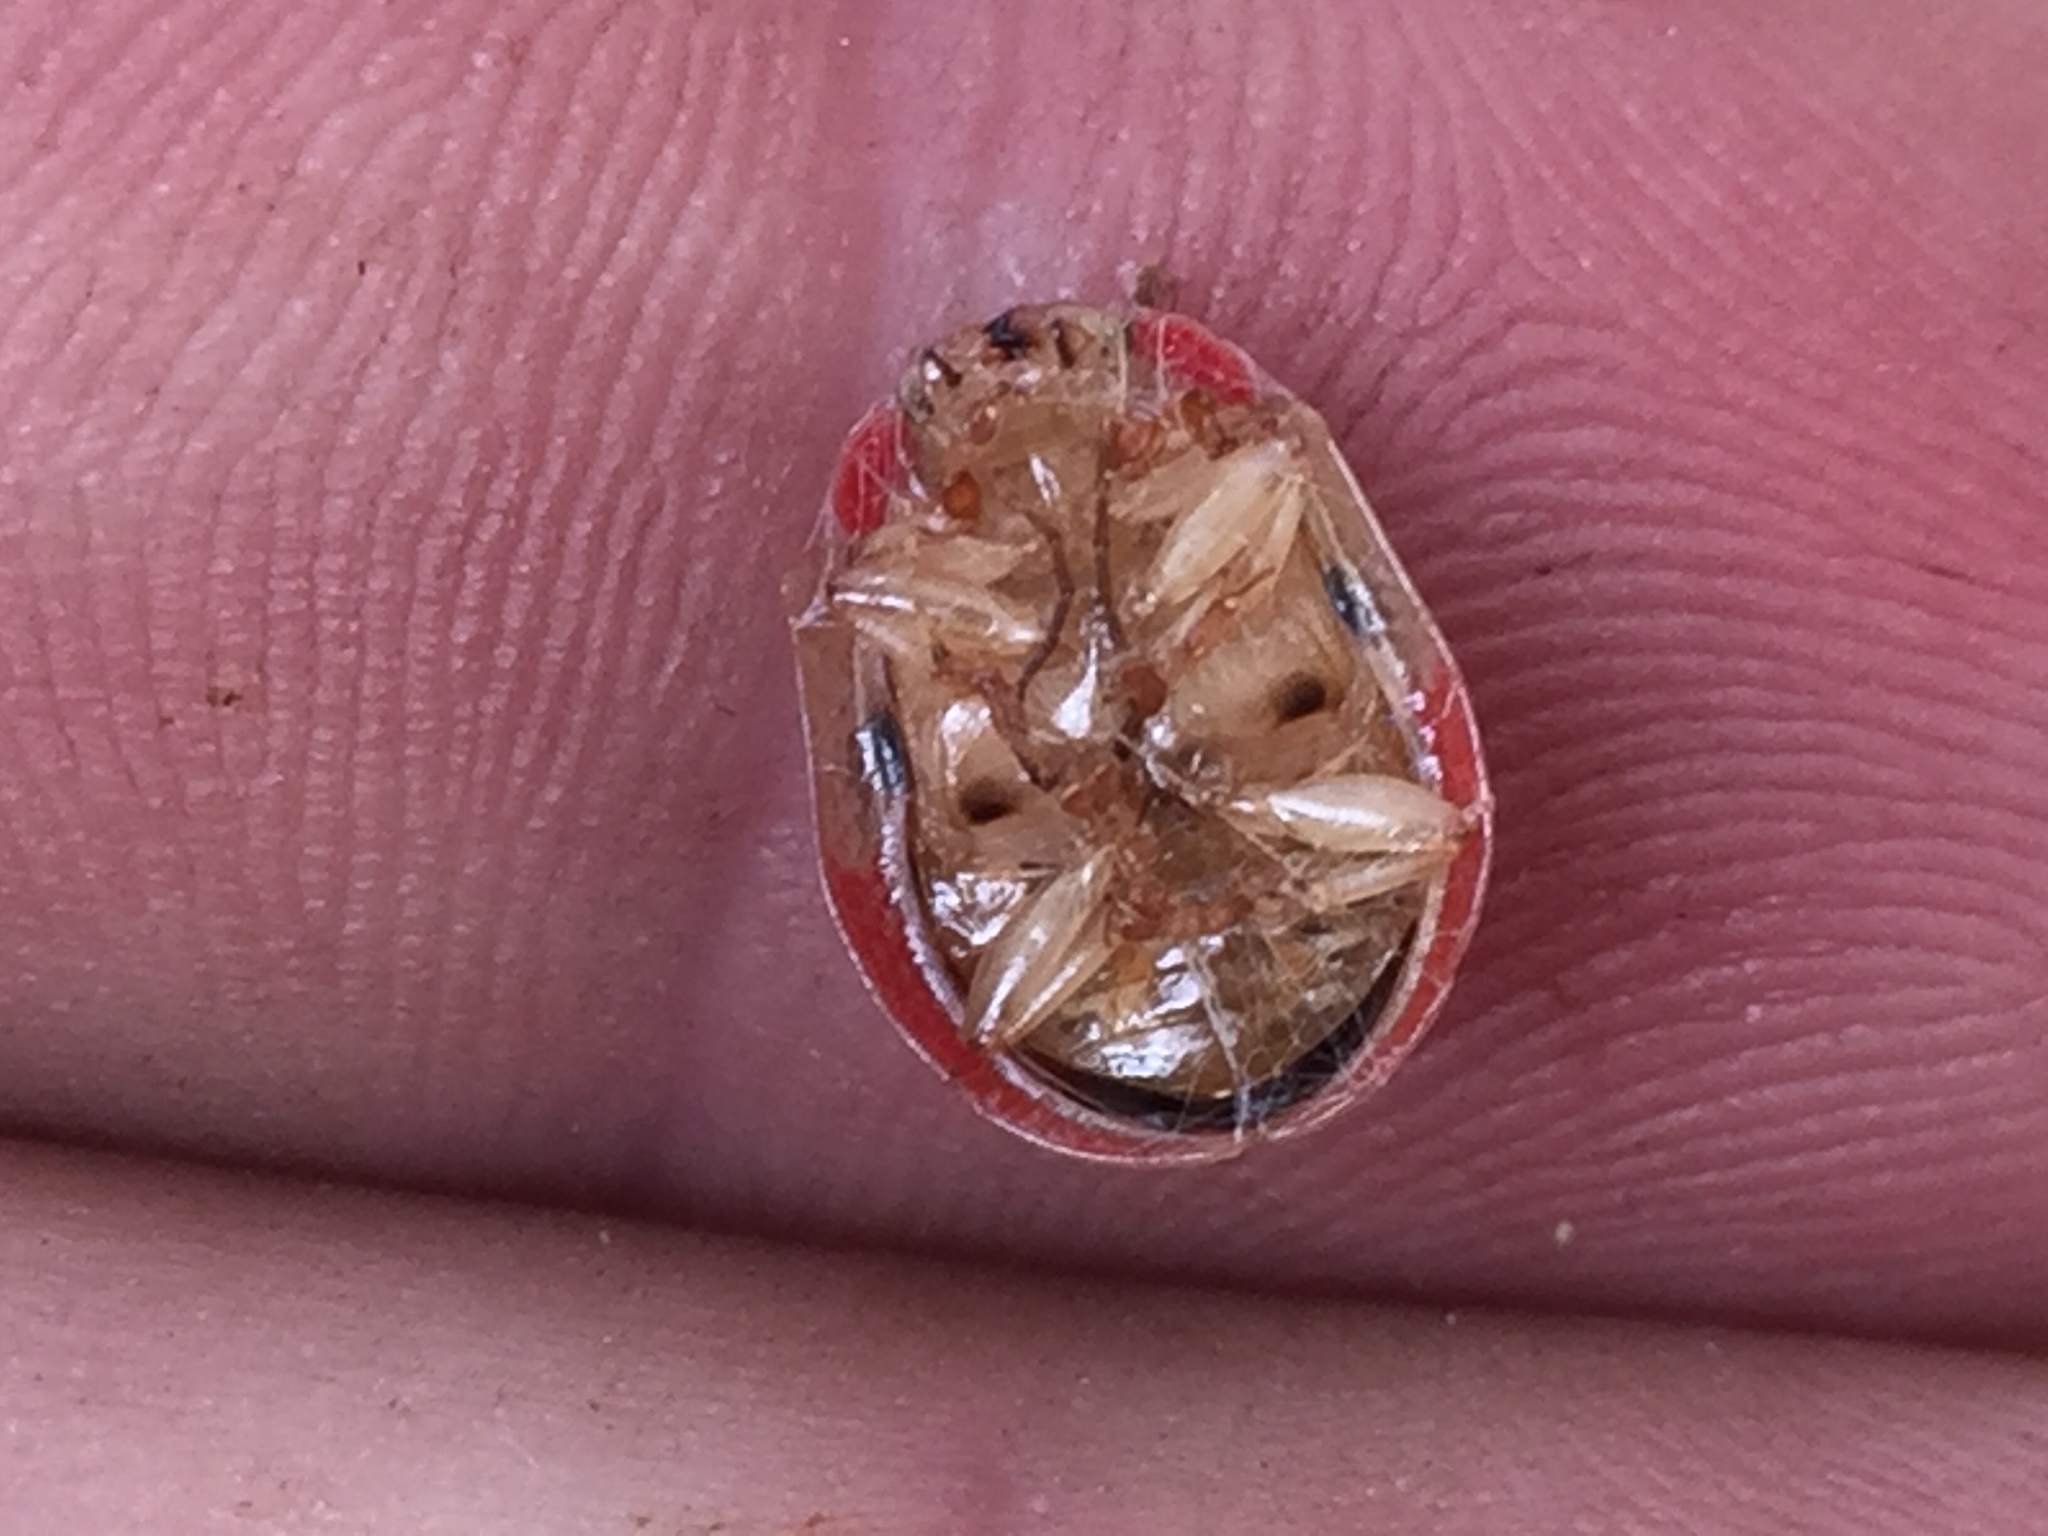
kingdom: Animalia
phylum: Arthropoda
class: Insecta
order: Coleoptera
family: Chrysomelidae
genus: Paropsis
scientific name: Paropsis charybdis
